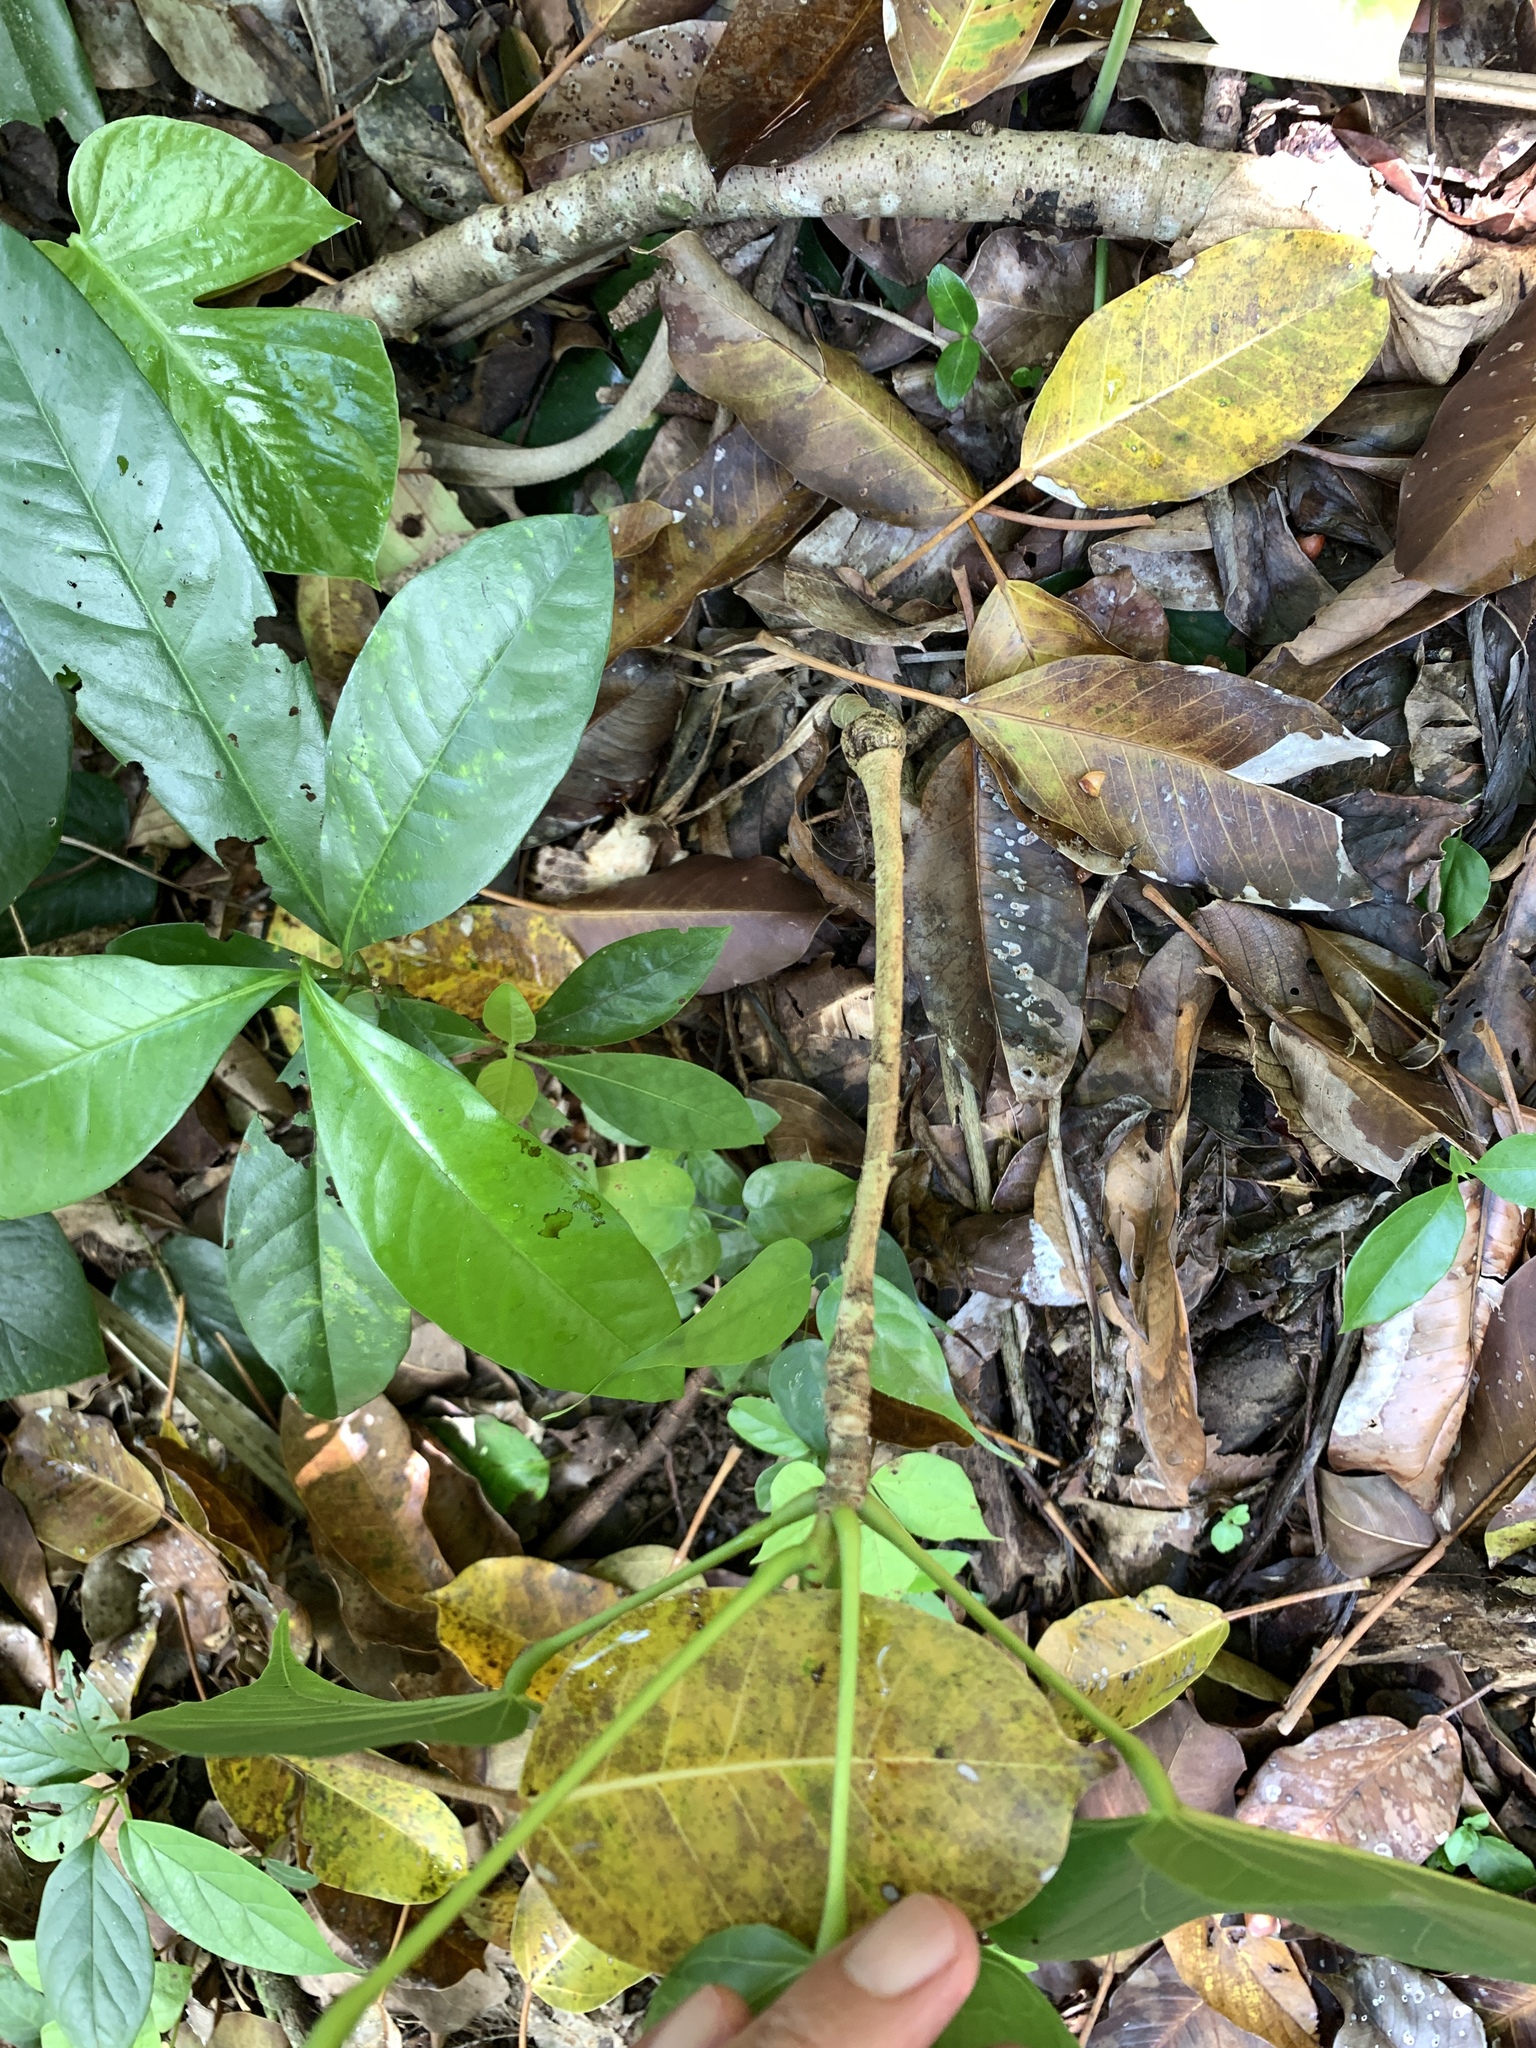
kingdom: Plantae
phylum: Tracheophyta
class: Magnoliopsida
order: Malvales
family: Malvaceae
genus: Sterculia
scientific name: Sterculia ceramica
